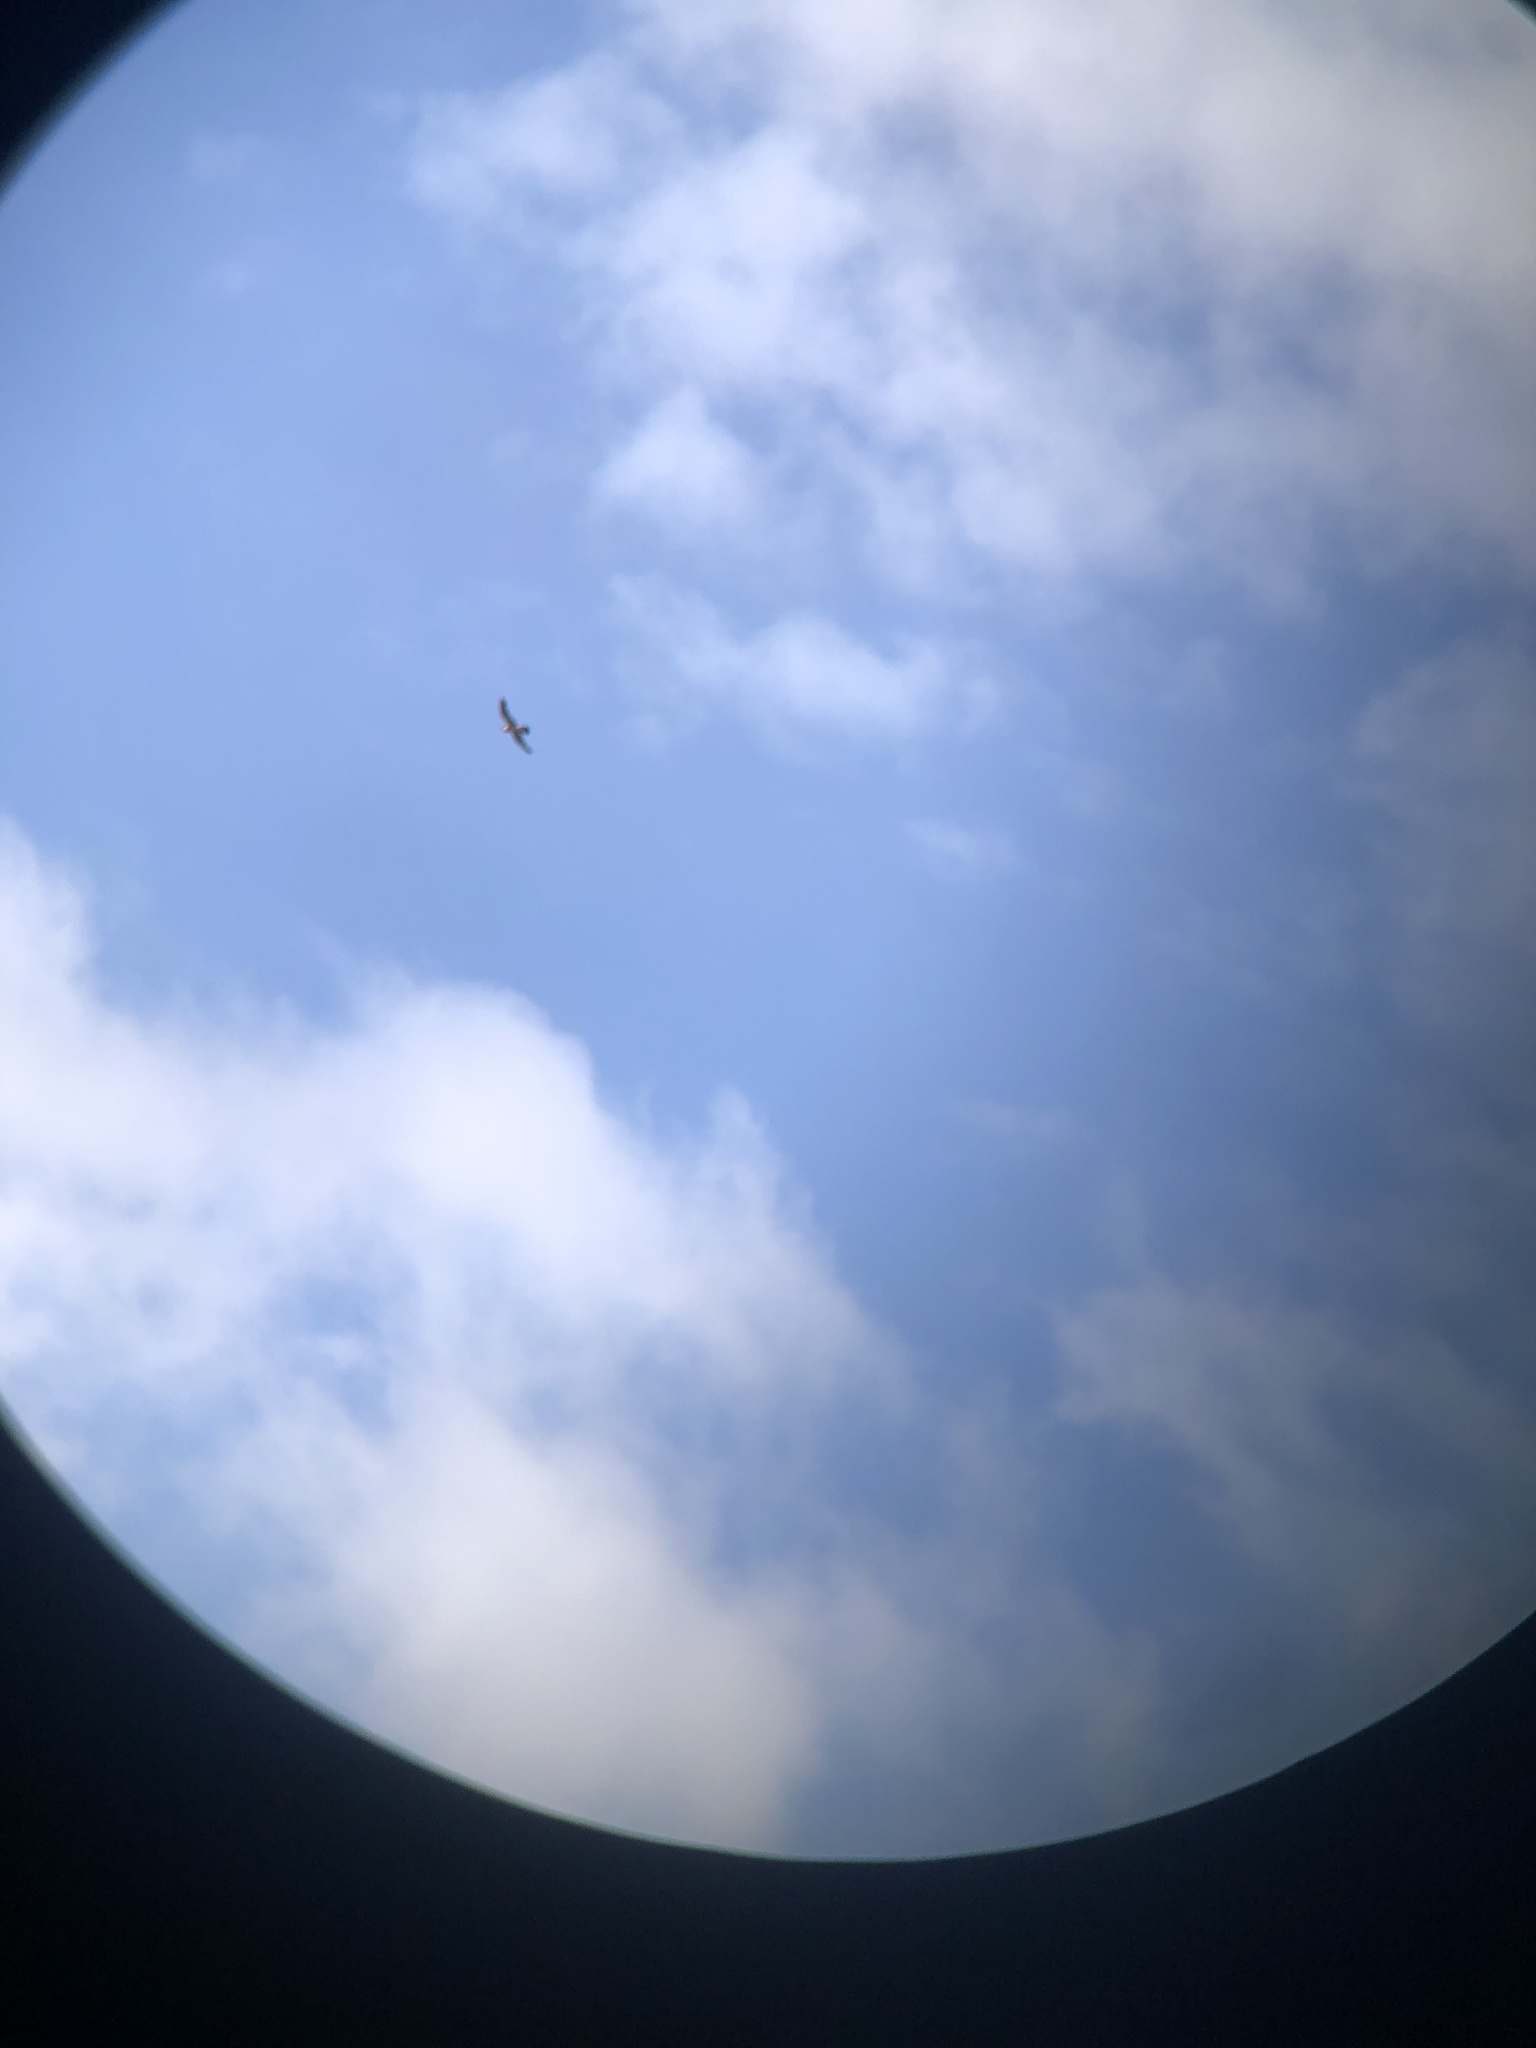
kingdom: Animalia
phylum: Chordata
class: Aves
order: Falconiformes
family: Falconidae
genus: Falco
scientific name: Falco peregrinus
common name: Peregrine falcon
